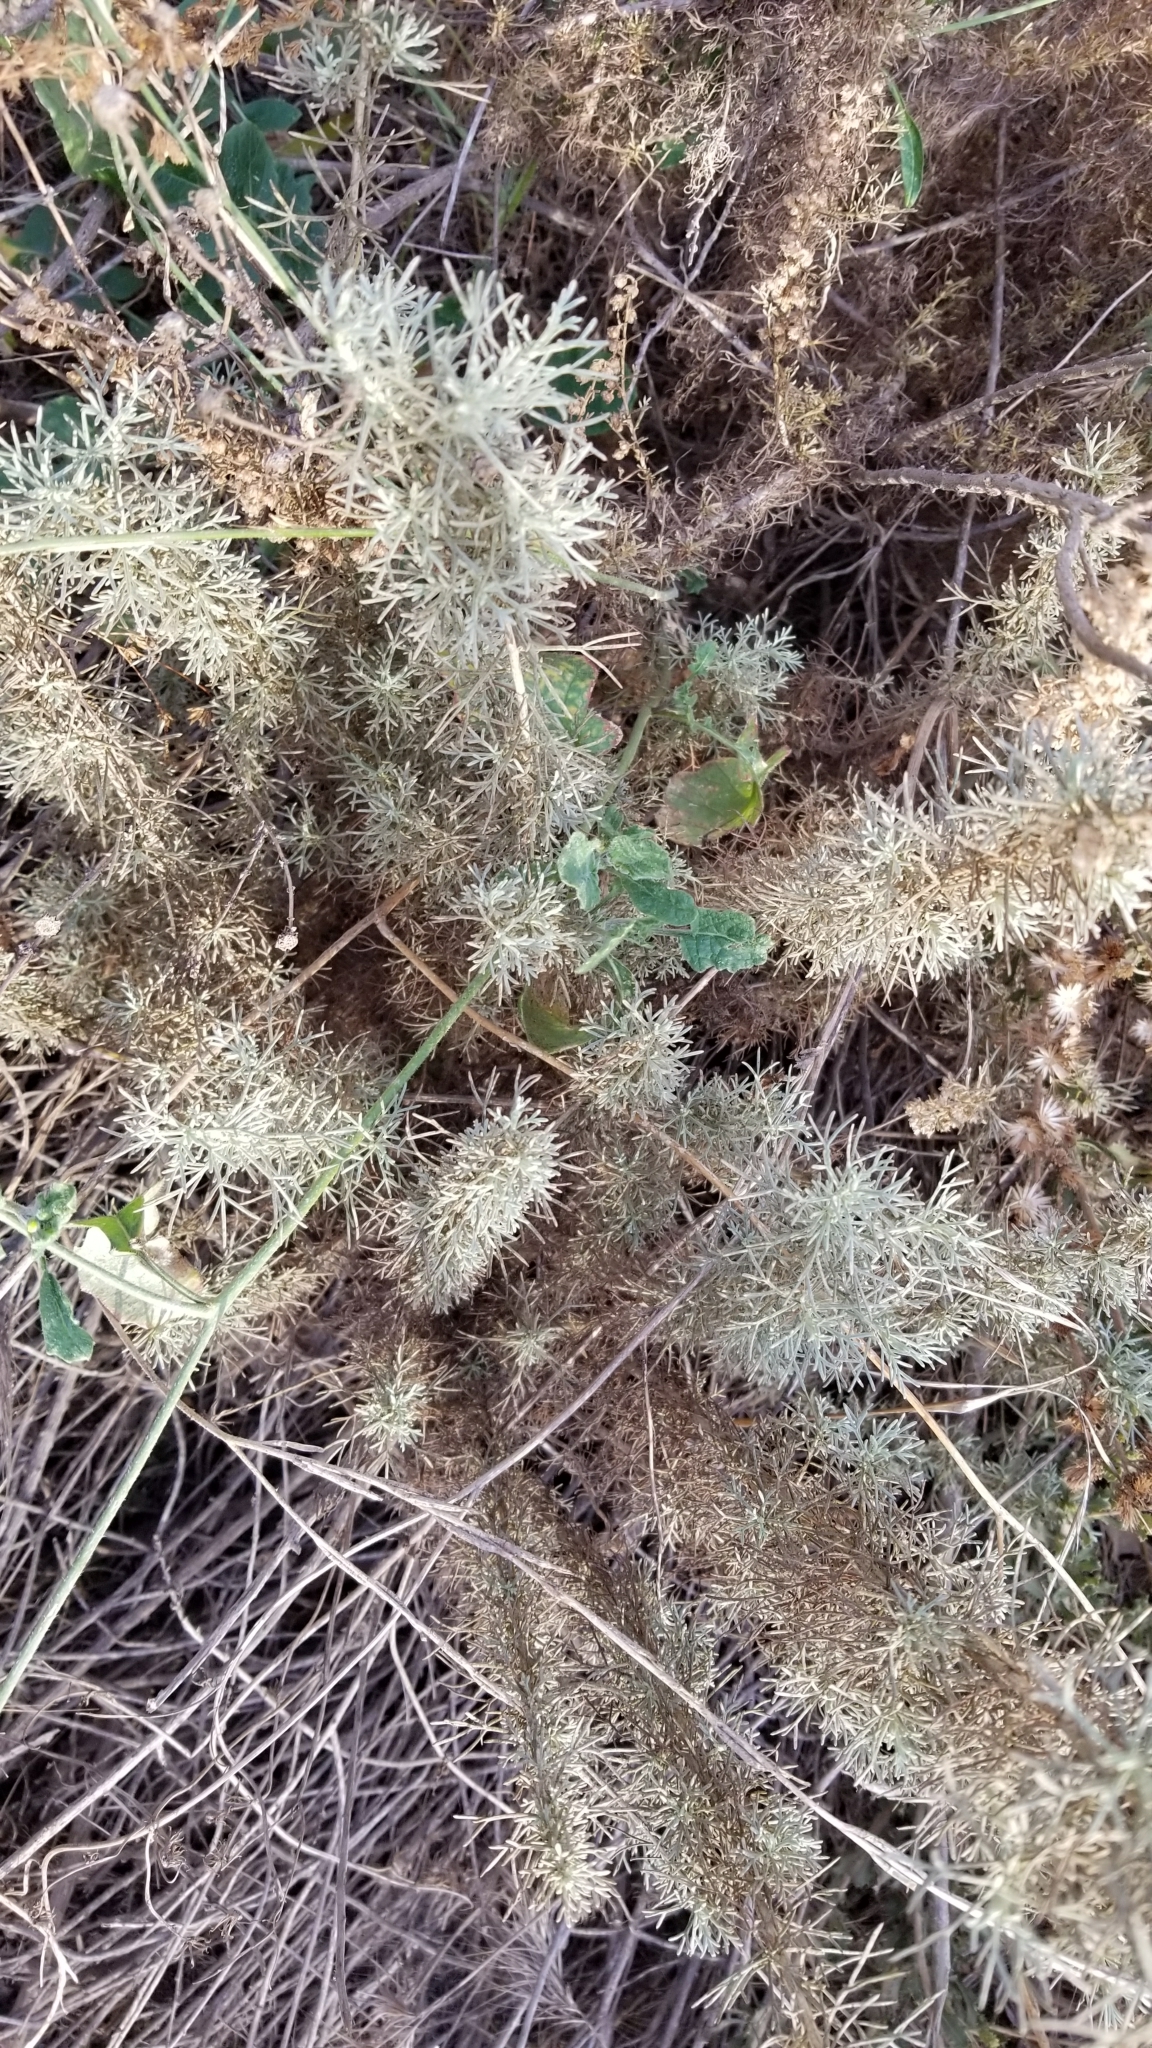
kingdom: Plantae
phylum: Tracheophyta
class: Magnoliopsida
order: Asterales
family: Asteraceae
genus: Artemisia
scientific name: Artemisia californica
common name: California sagebrush
